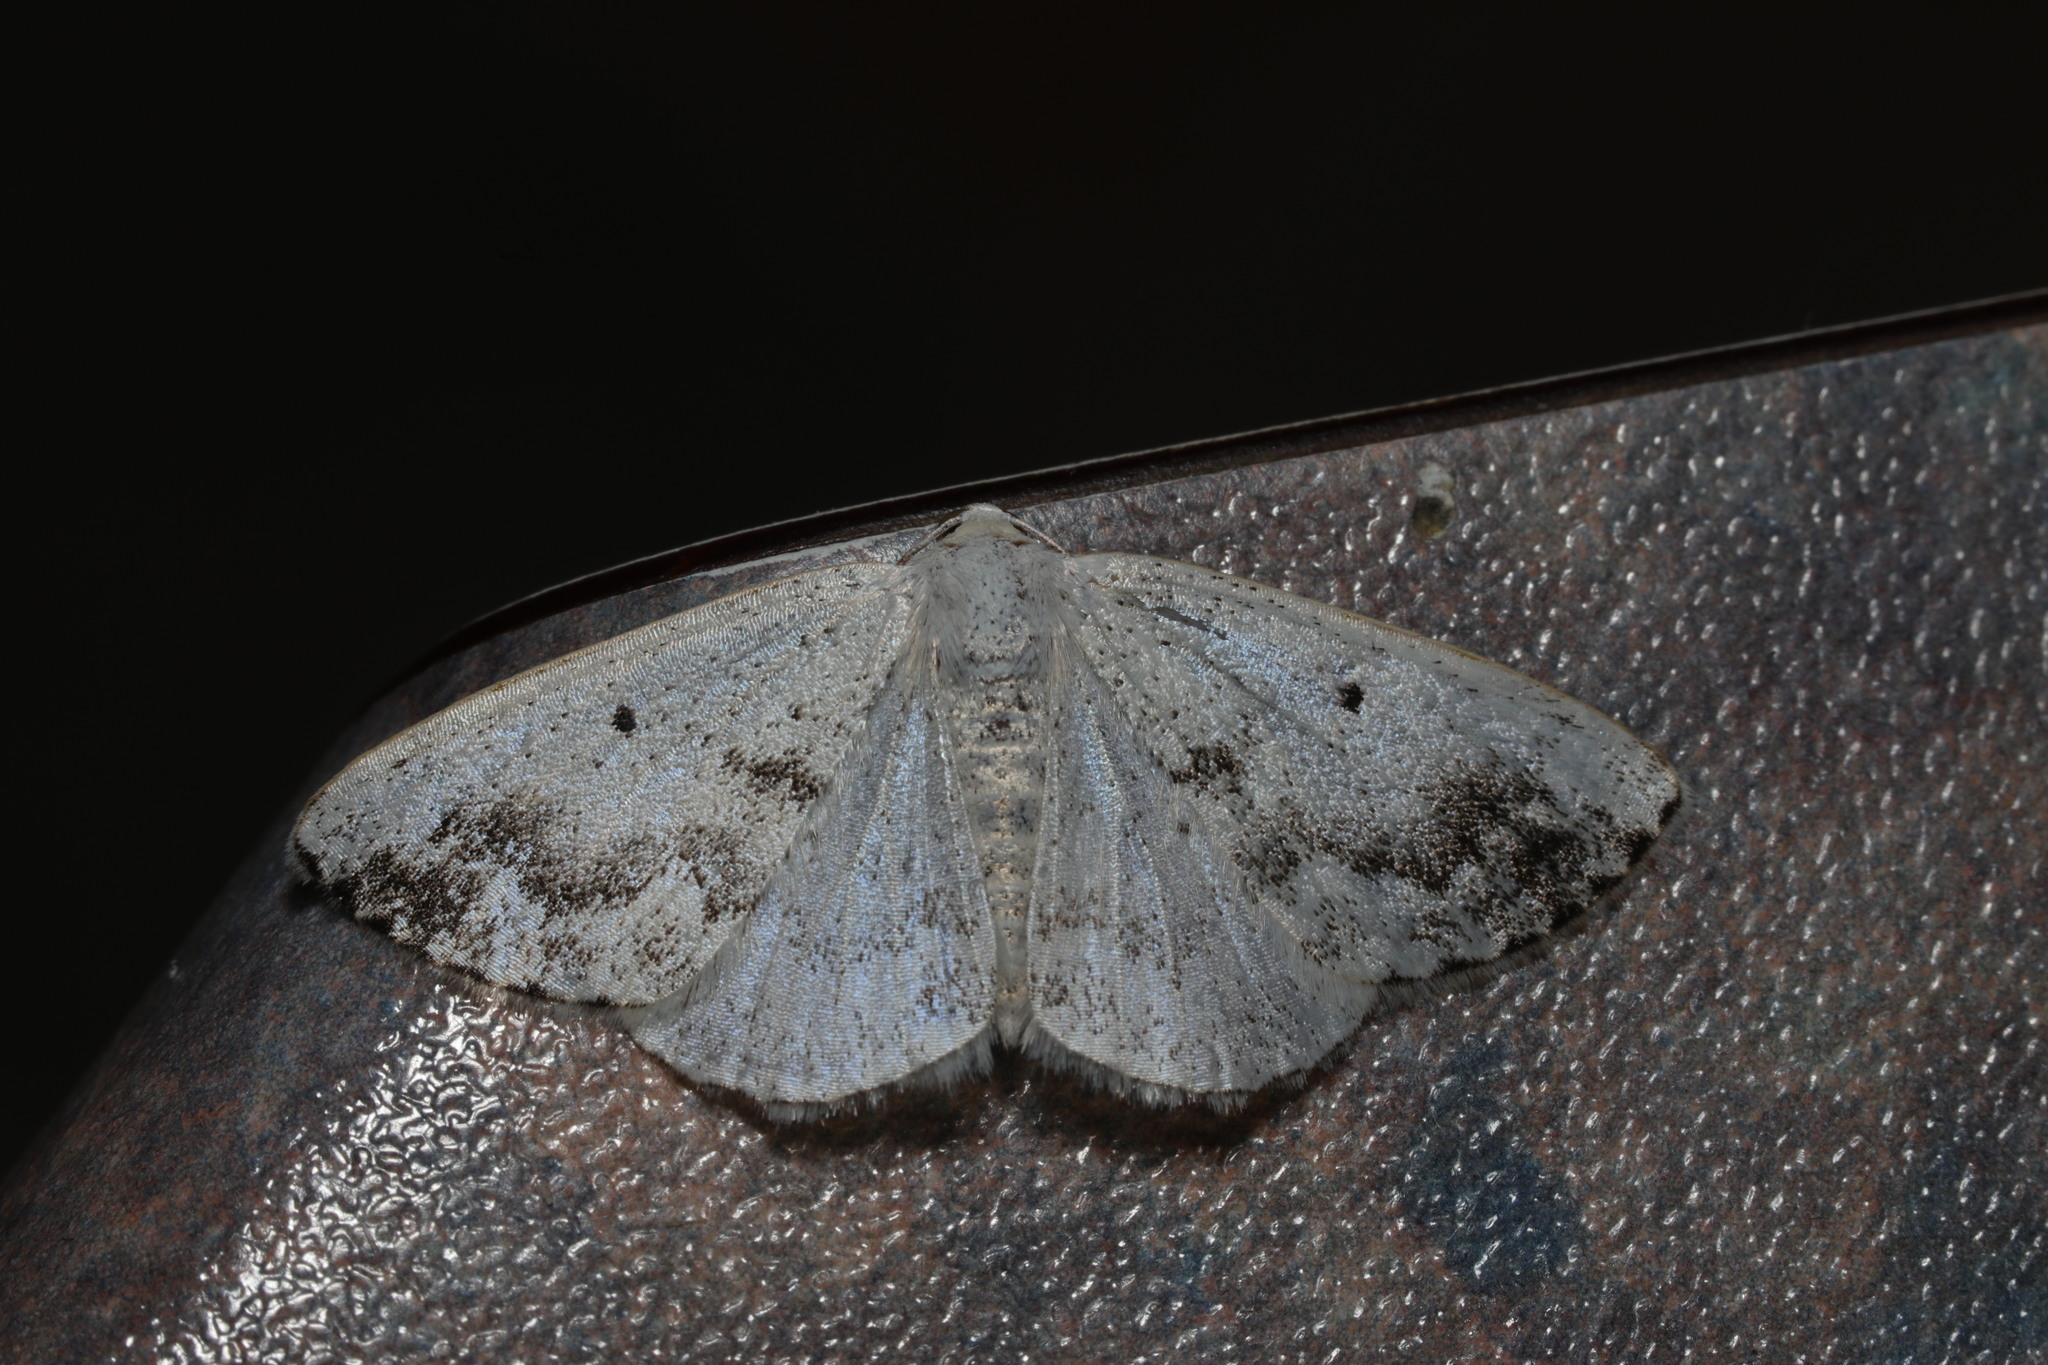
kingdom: Animalia
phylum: Arthropoda
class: Insecta
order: Lepidoptera
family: Geometridae
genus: Lomographa
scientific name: Lomographa temerata
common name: Clouded silver
